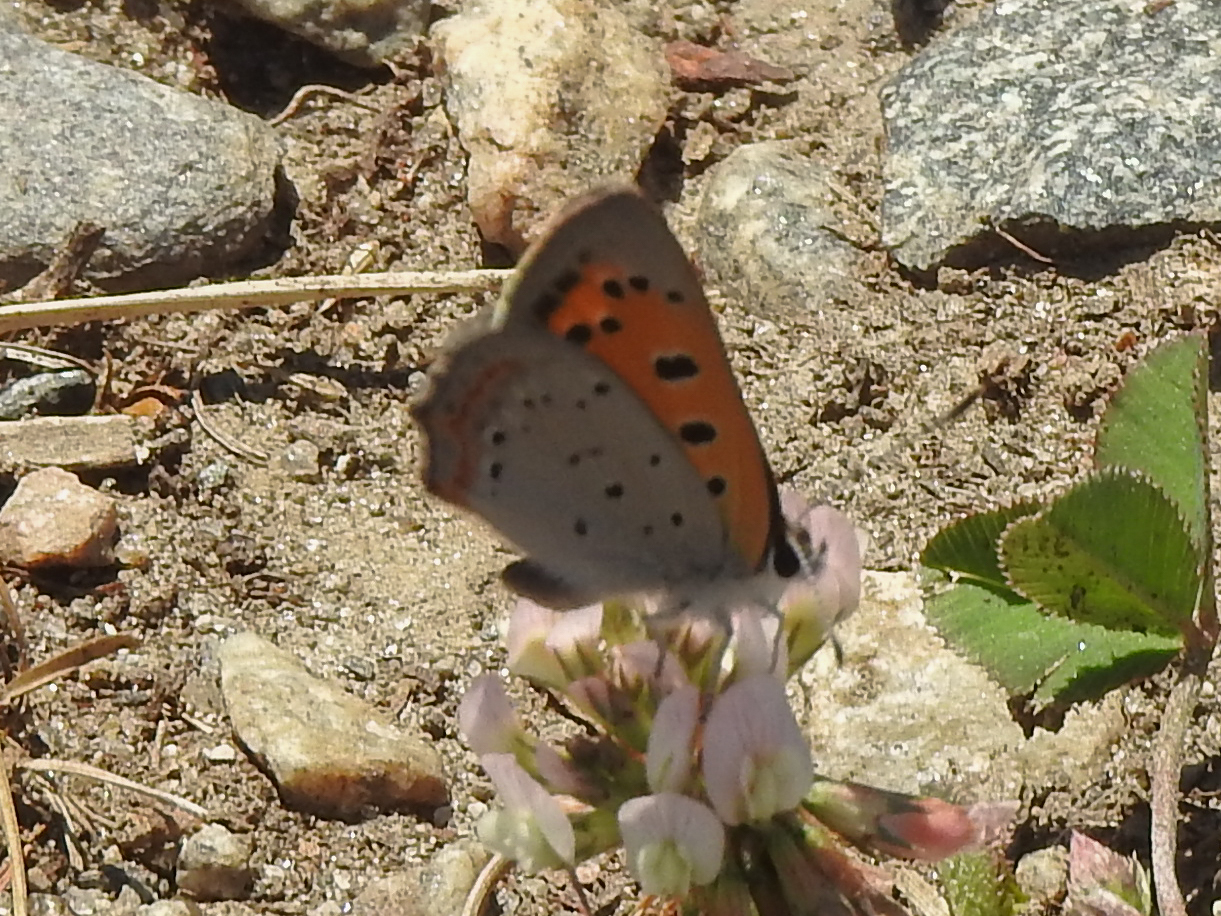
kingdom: Animalia
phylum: Arthropoda
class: Insecta
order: Lepidoptera
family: Lycaenidae
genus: Lycaena
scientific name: Lycaena hypophlaeas
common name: American copper
